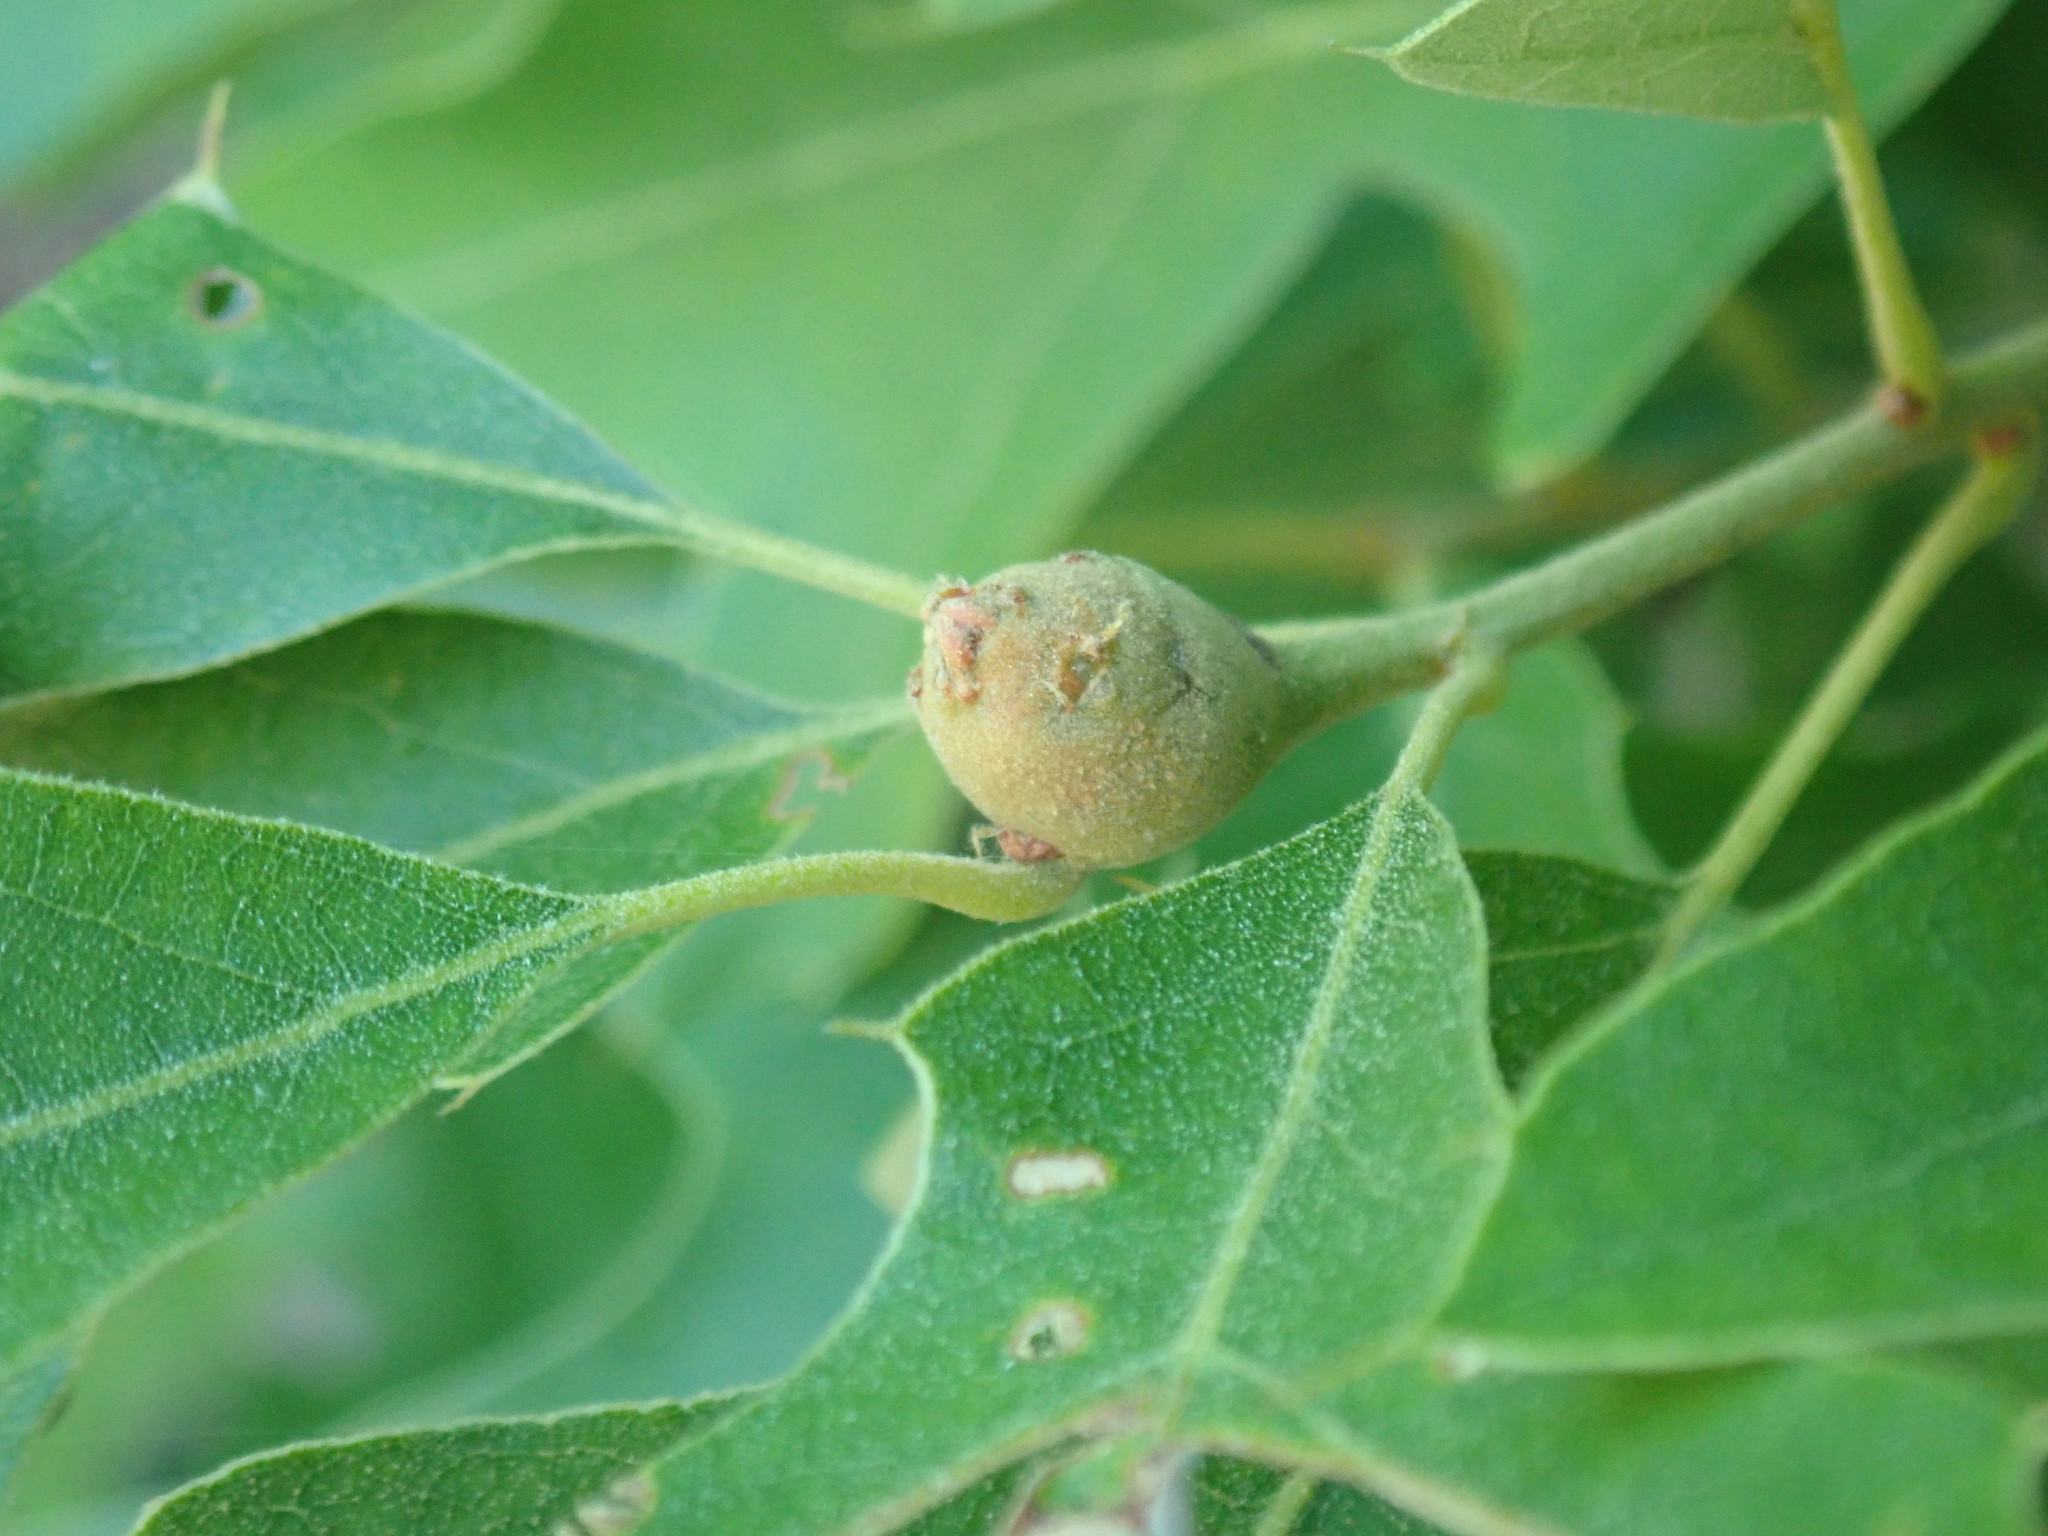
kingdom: Animalia
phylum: Arthropoda
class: Insecta
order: Hymenoptera
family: Cynipidae
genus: Zapatella
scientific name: Zapatella quercusphellos
